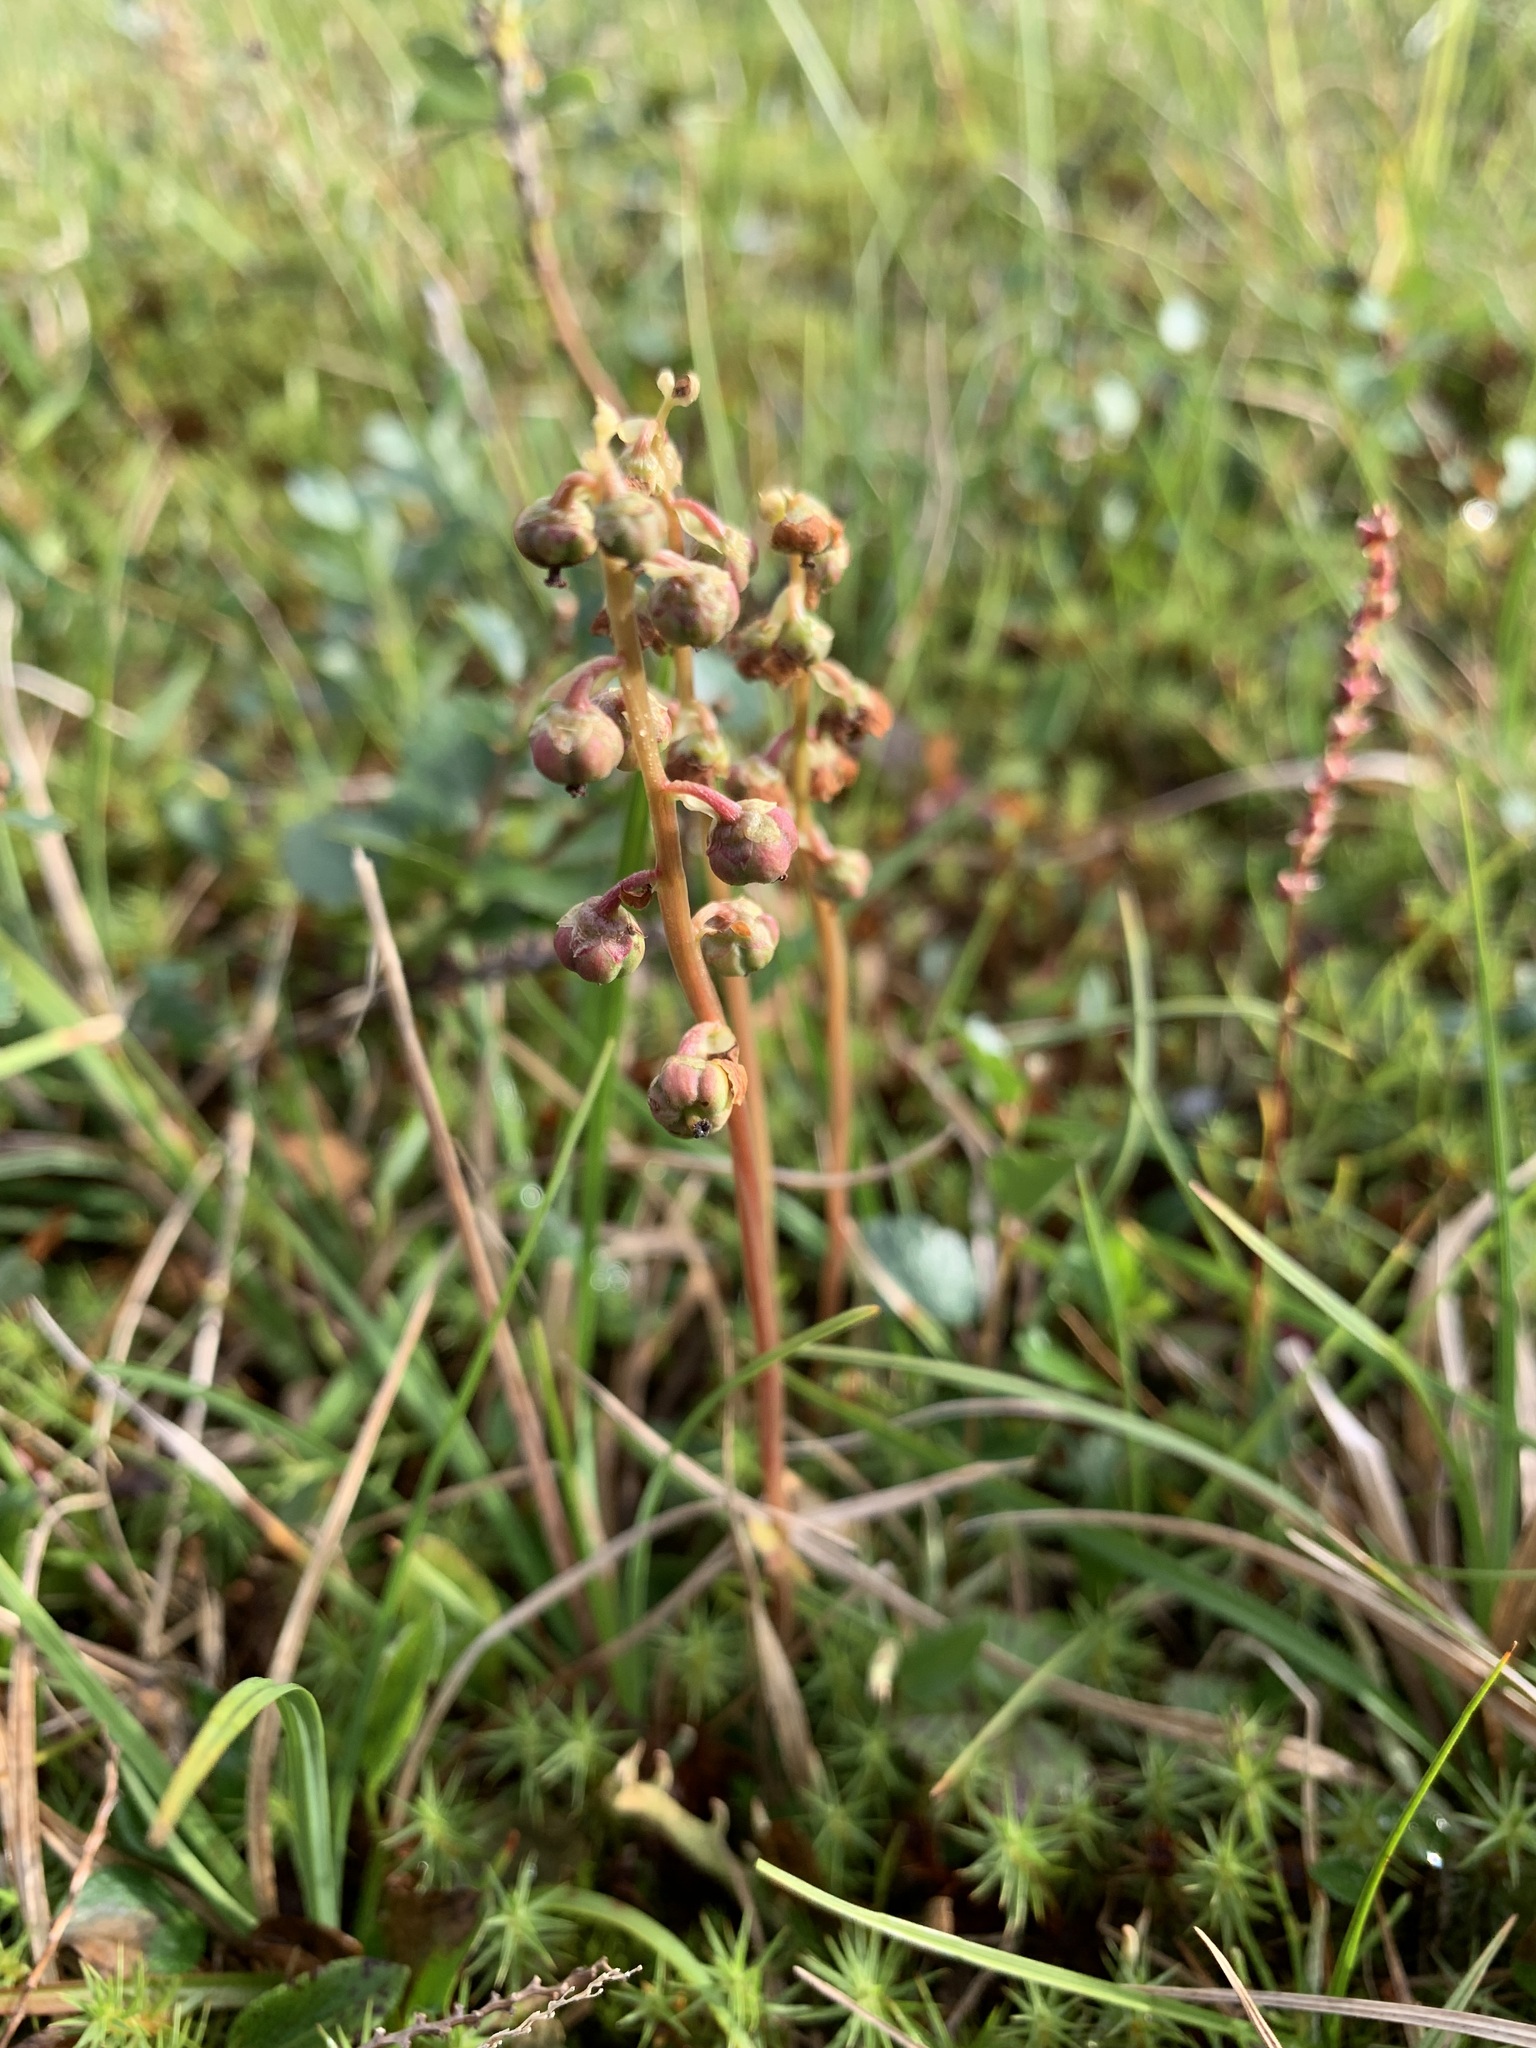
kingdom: Plantae
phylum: Tracheophyta
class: Magnoliopsida
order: Ericales
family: Ericaceae
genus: Pyrola
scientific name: Pyrola grandiflora
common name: Arctic pyrola
